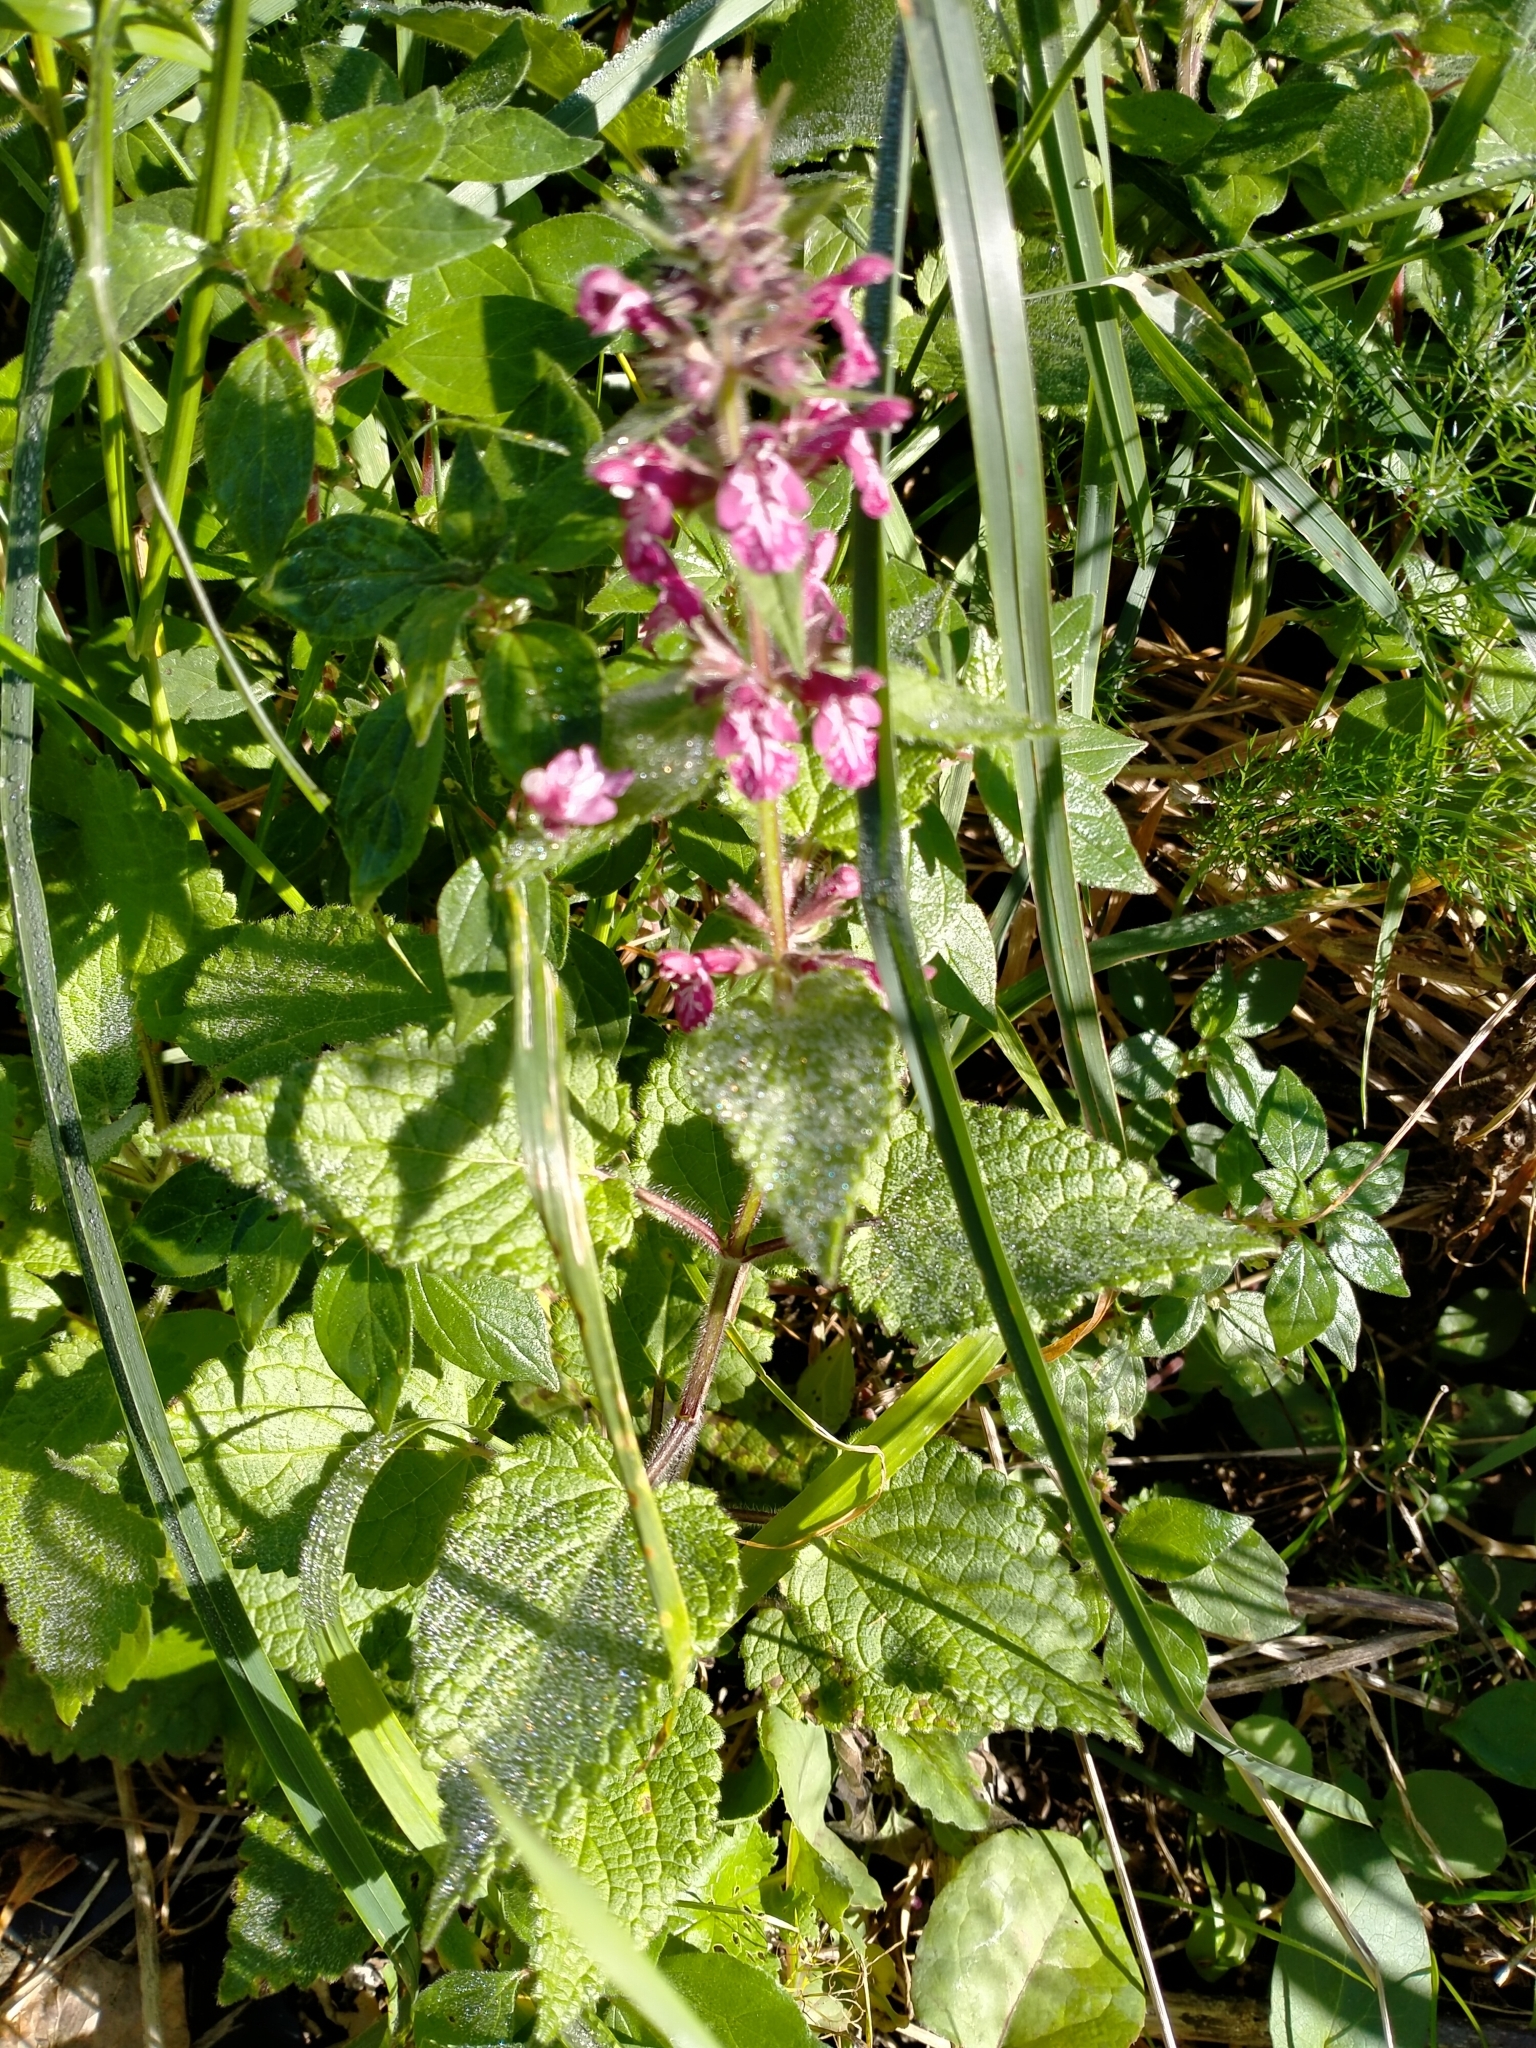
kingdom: Plantae
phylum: Tracheophyta
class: Magnoliopsida
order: Lamiales
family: Lamiaceae
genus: Stachys
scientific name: Stachys sylvatica
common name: Hedge woundwort
